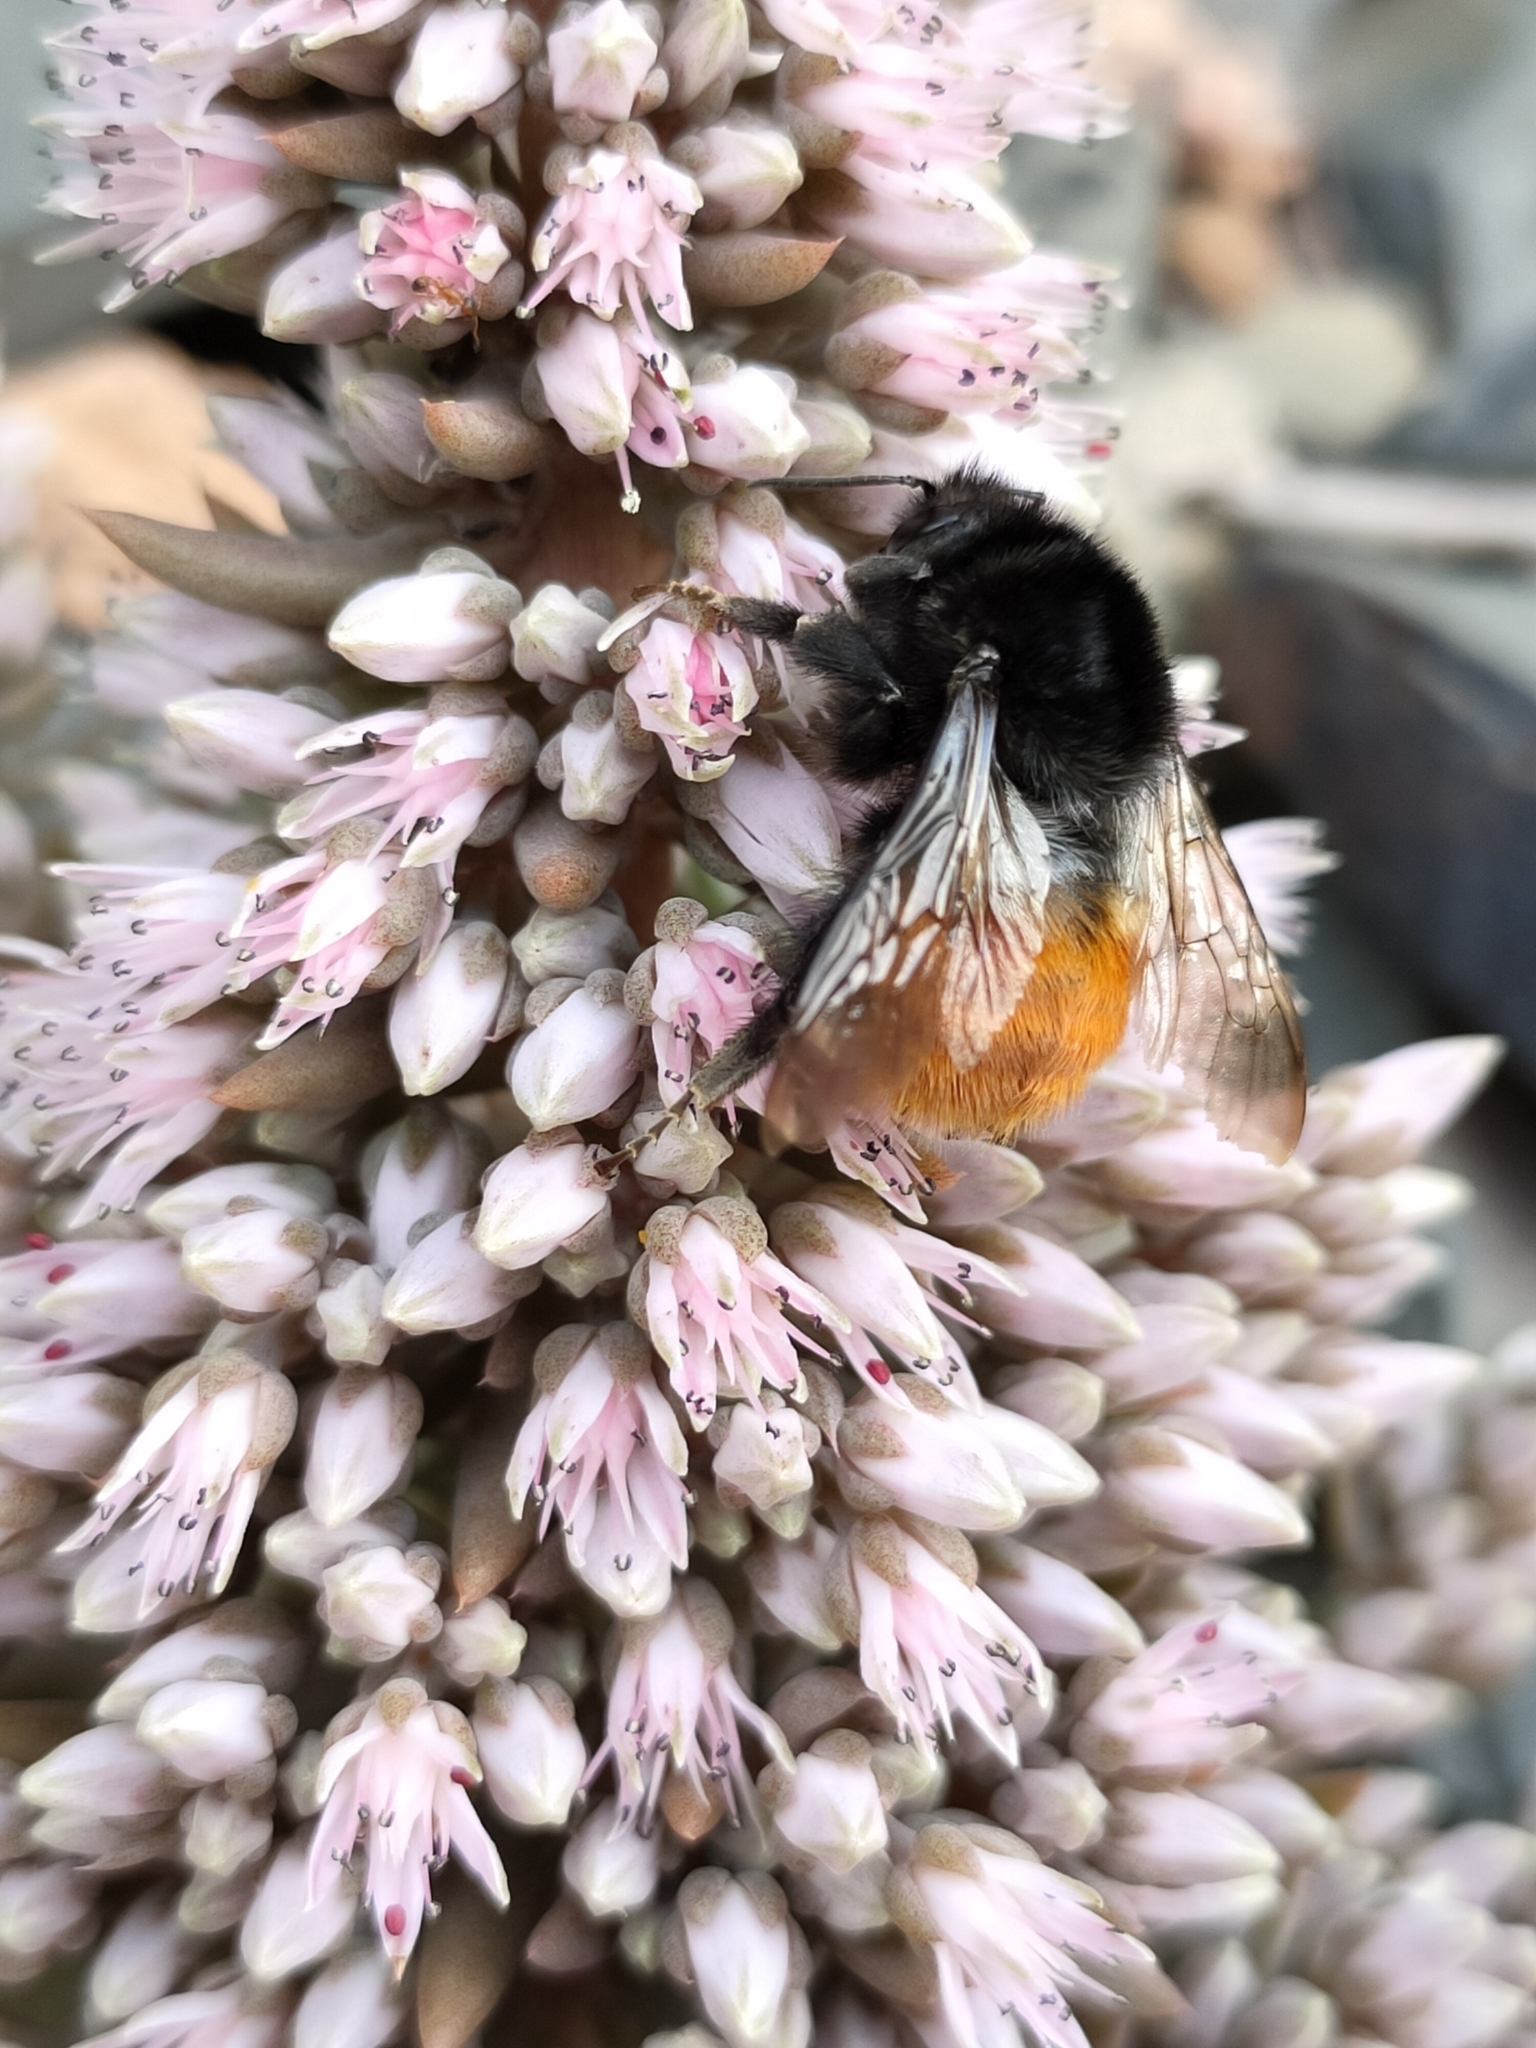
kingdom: Animalia
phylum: Arthropoda
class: Insecta
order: Hymenoptera
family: Apidae
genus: Bombus
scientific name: Bombus pyrosoma
